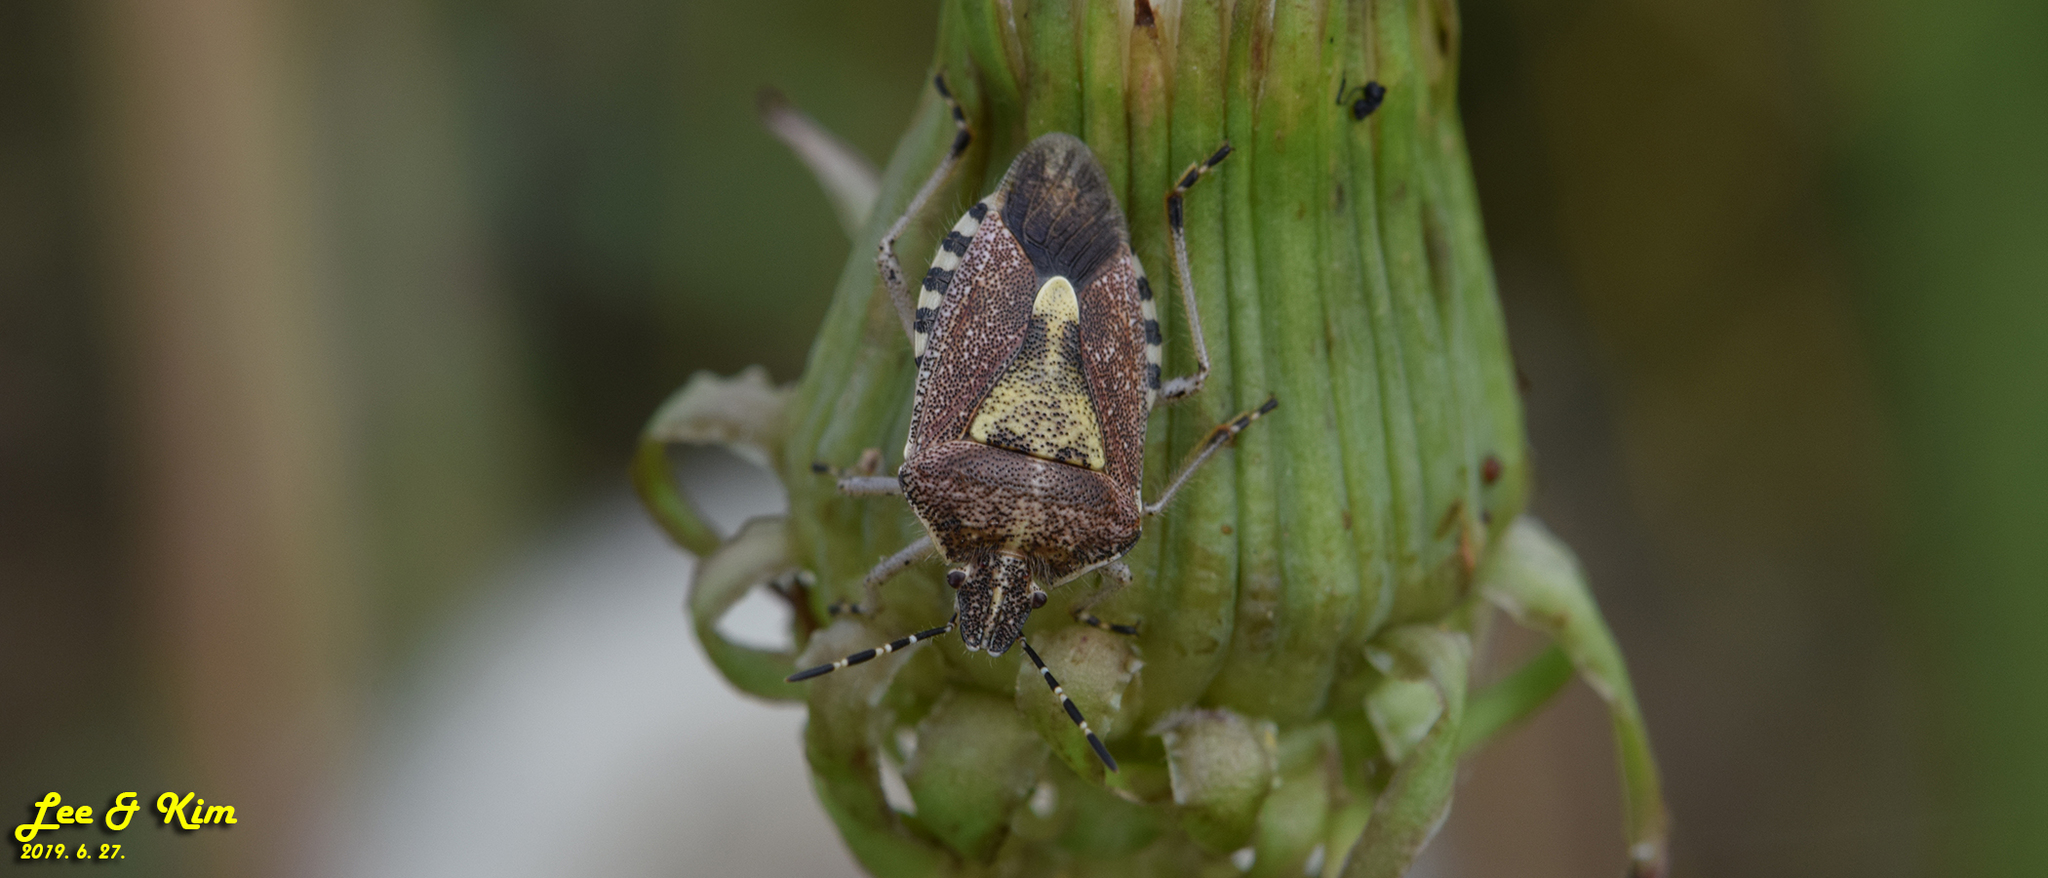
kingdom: Animalia
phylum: Arthropoda
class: Insecta
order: Hemiptera
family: Pentatomidae
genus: Dolycoris
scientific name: Dolycoris baccarum
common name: Sloe bug
